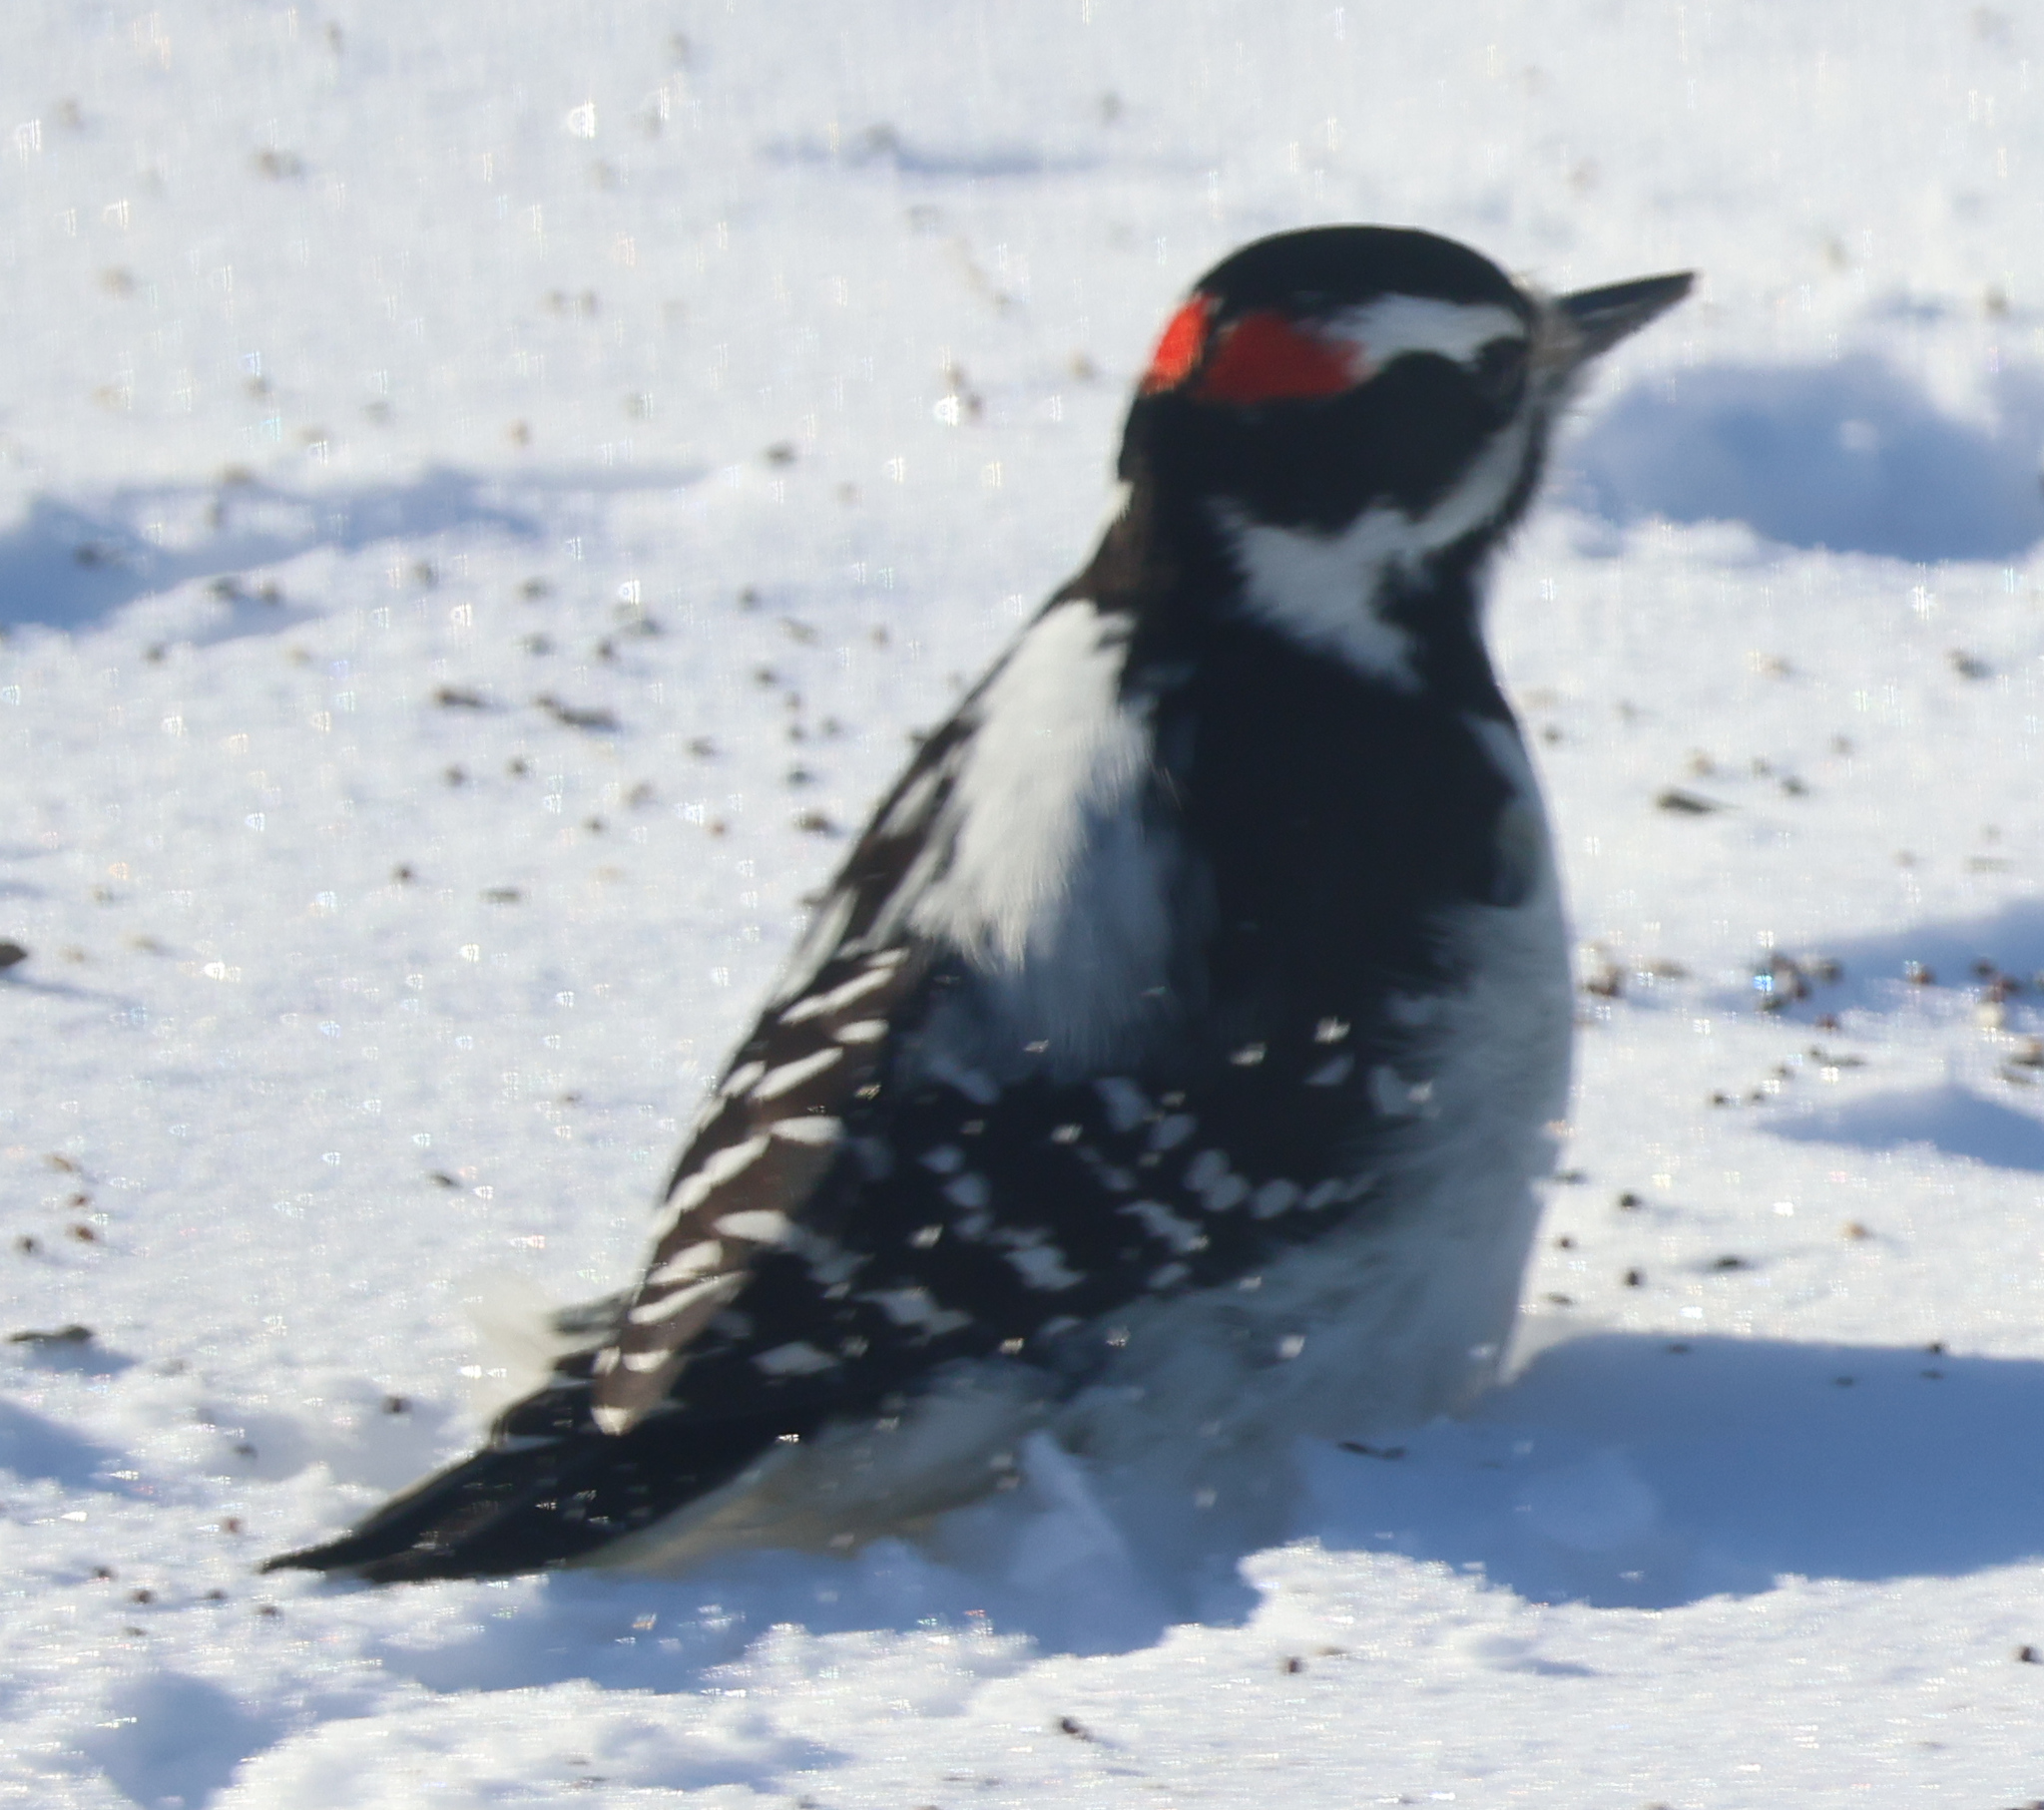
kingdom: Animalia
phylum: Chordata
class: Aves
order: Piciformes
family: Picidae
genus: Leuconotopicus
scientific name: Leuconotopicus villosus
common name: Hairy woodpecker
